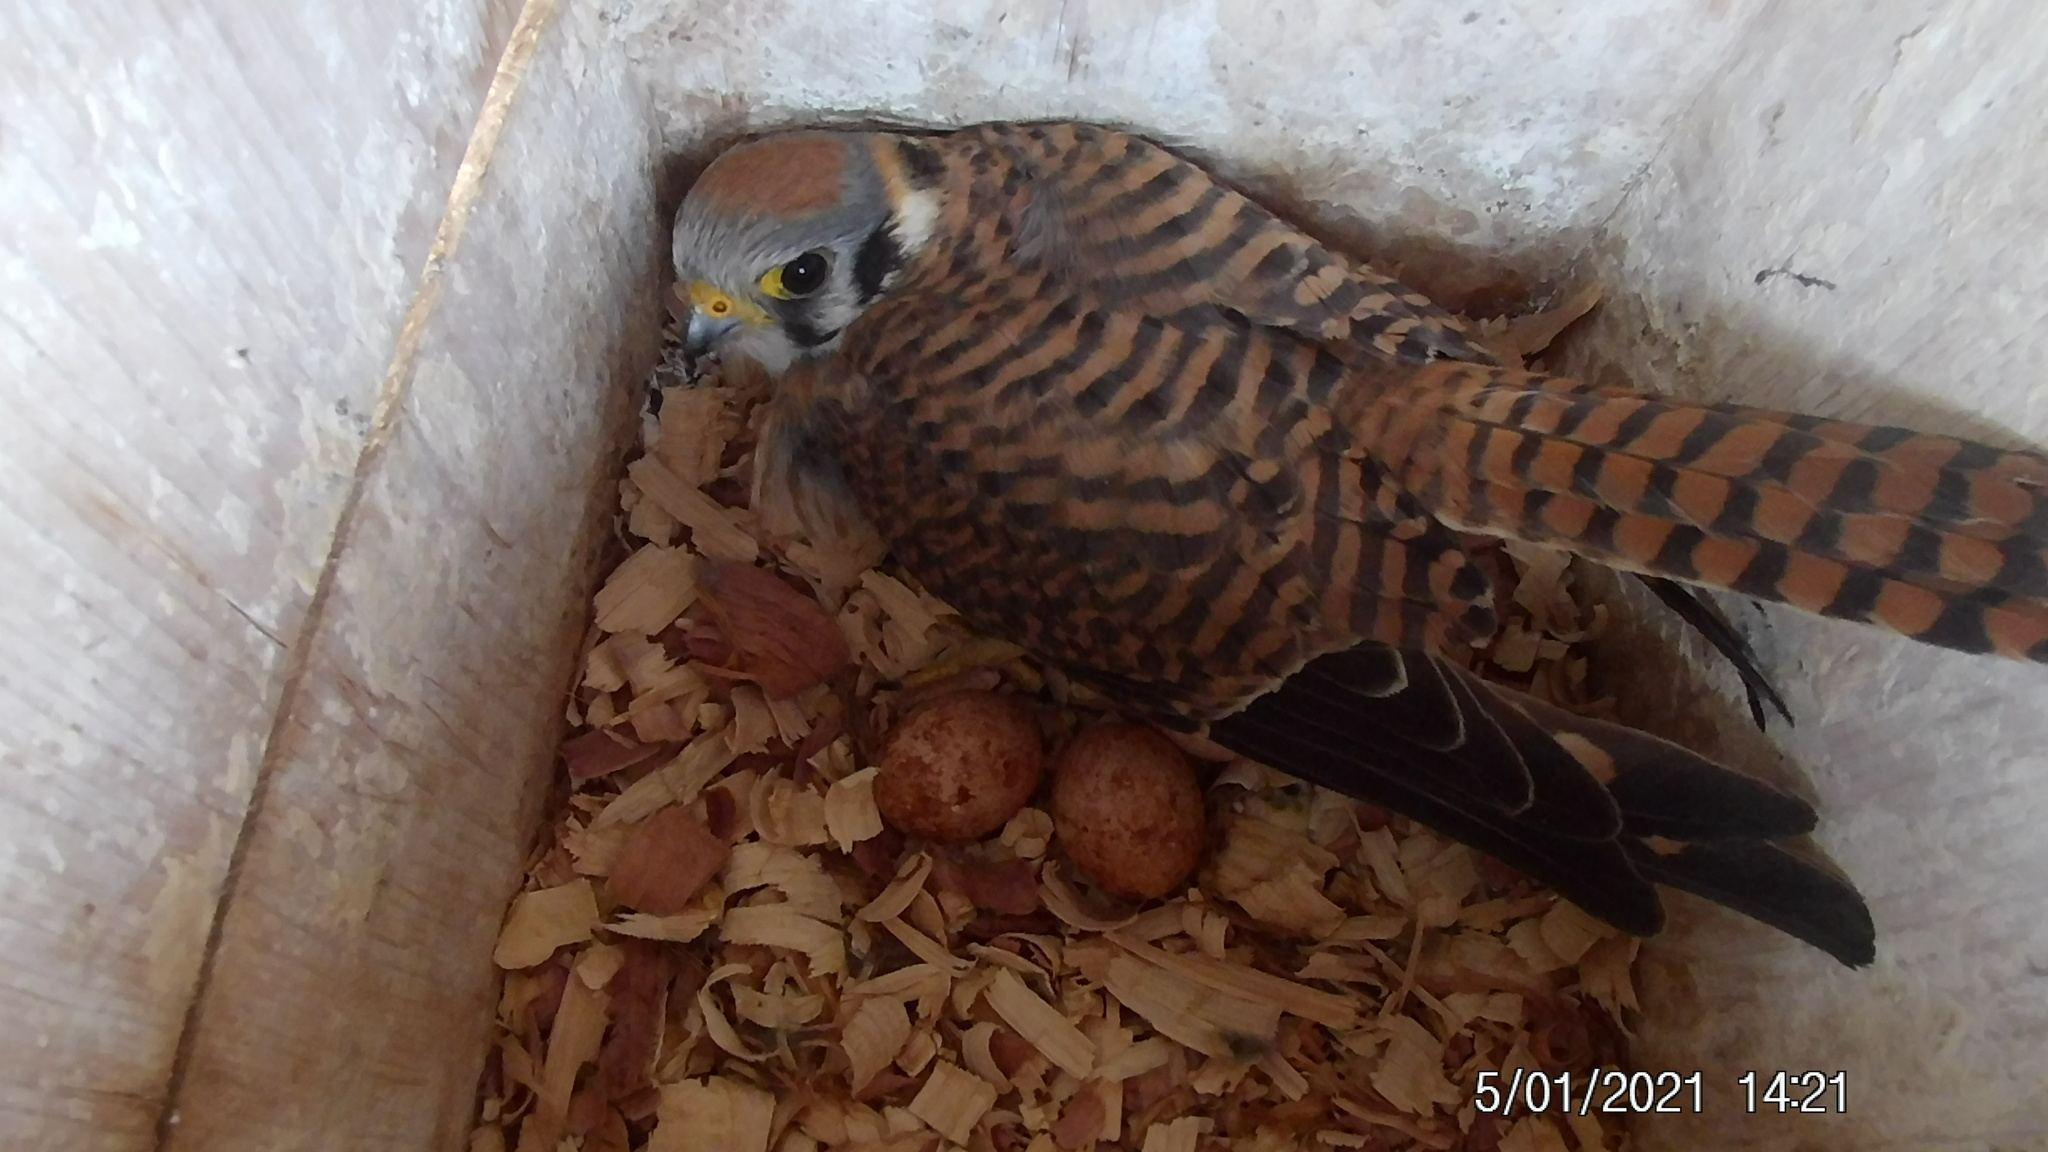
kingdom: Animalia
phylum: Chordata
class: Aves
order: Falconiformes
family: Falconidae
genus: Falco
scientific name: Falco sparverius
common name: American kestrel
